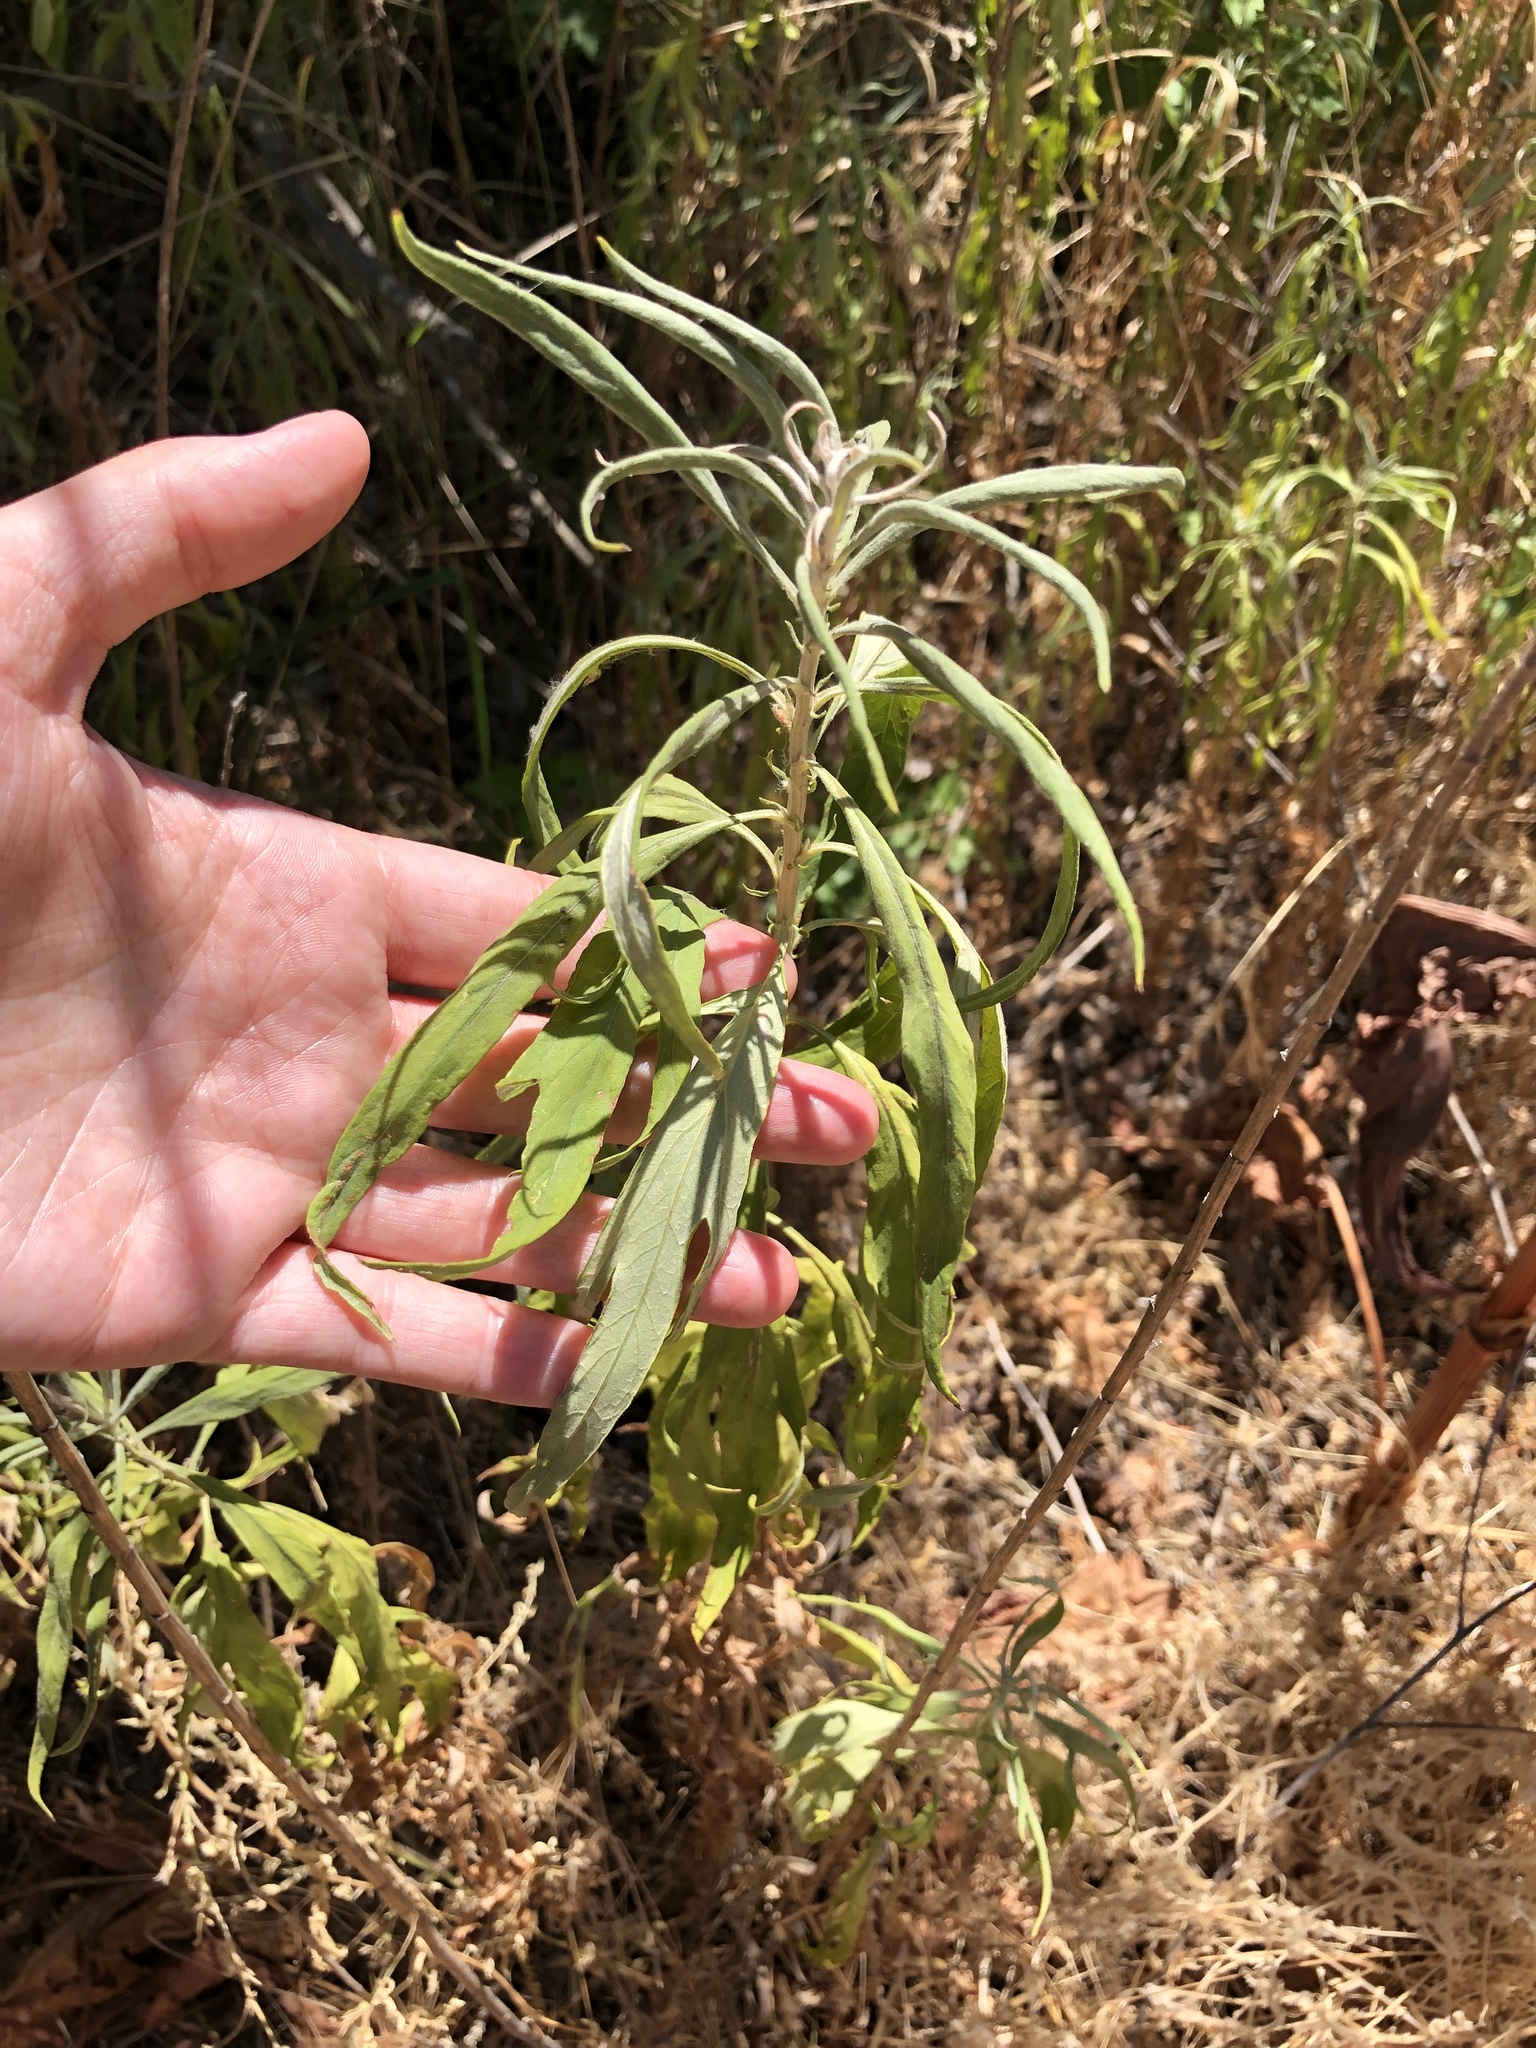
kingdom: Plantae
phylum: Tracheophyta
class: Magnoliopsida
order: Asterales
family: Asteraceae
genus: Artemisia
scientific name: Artemisia douglasiana
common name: Northwest mugwort
